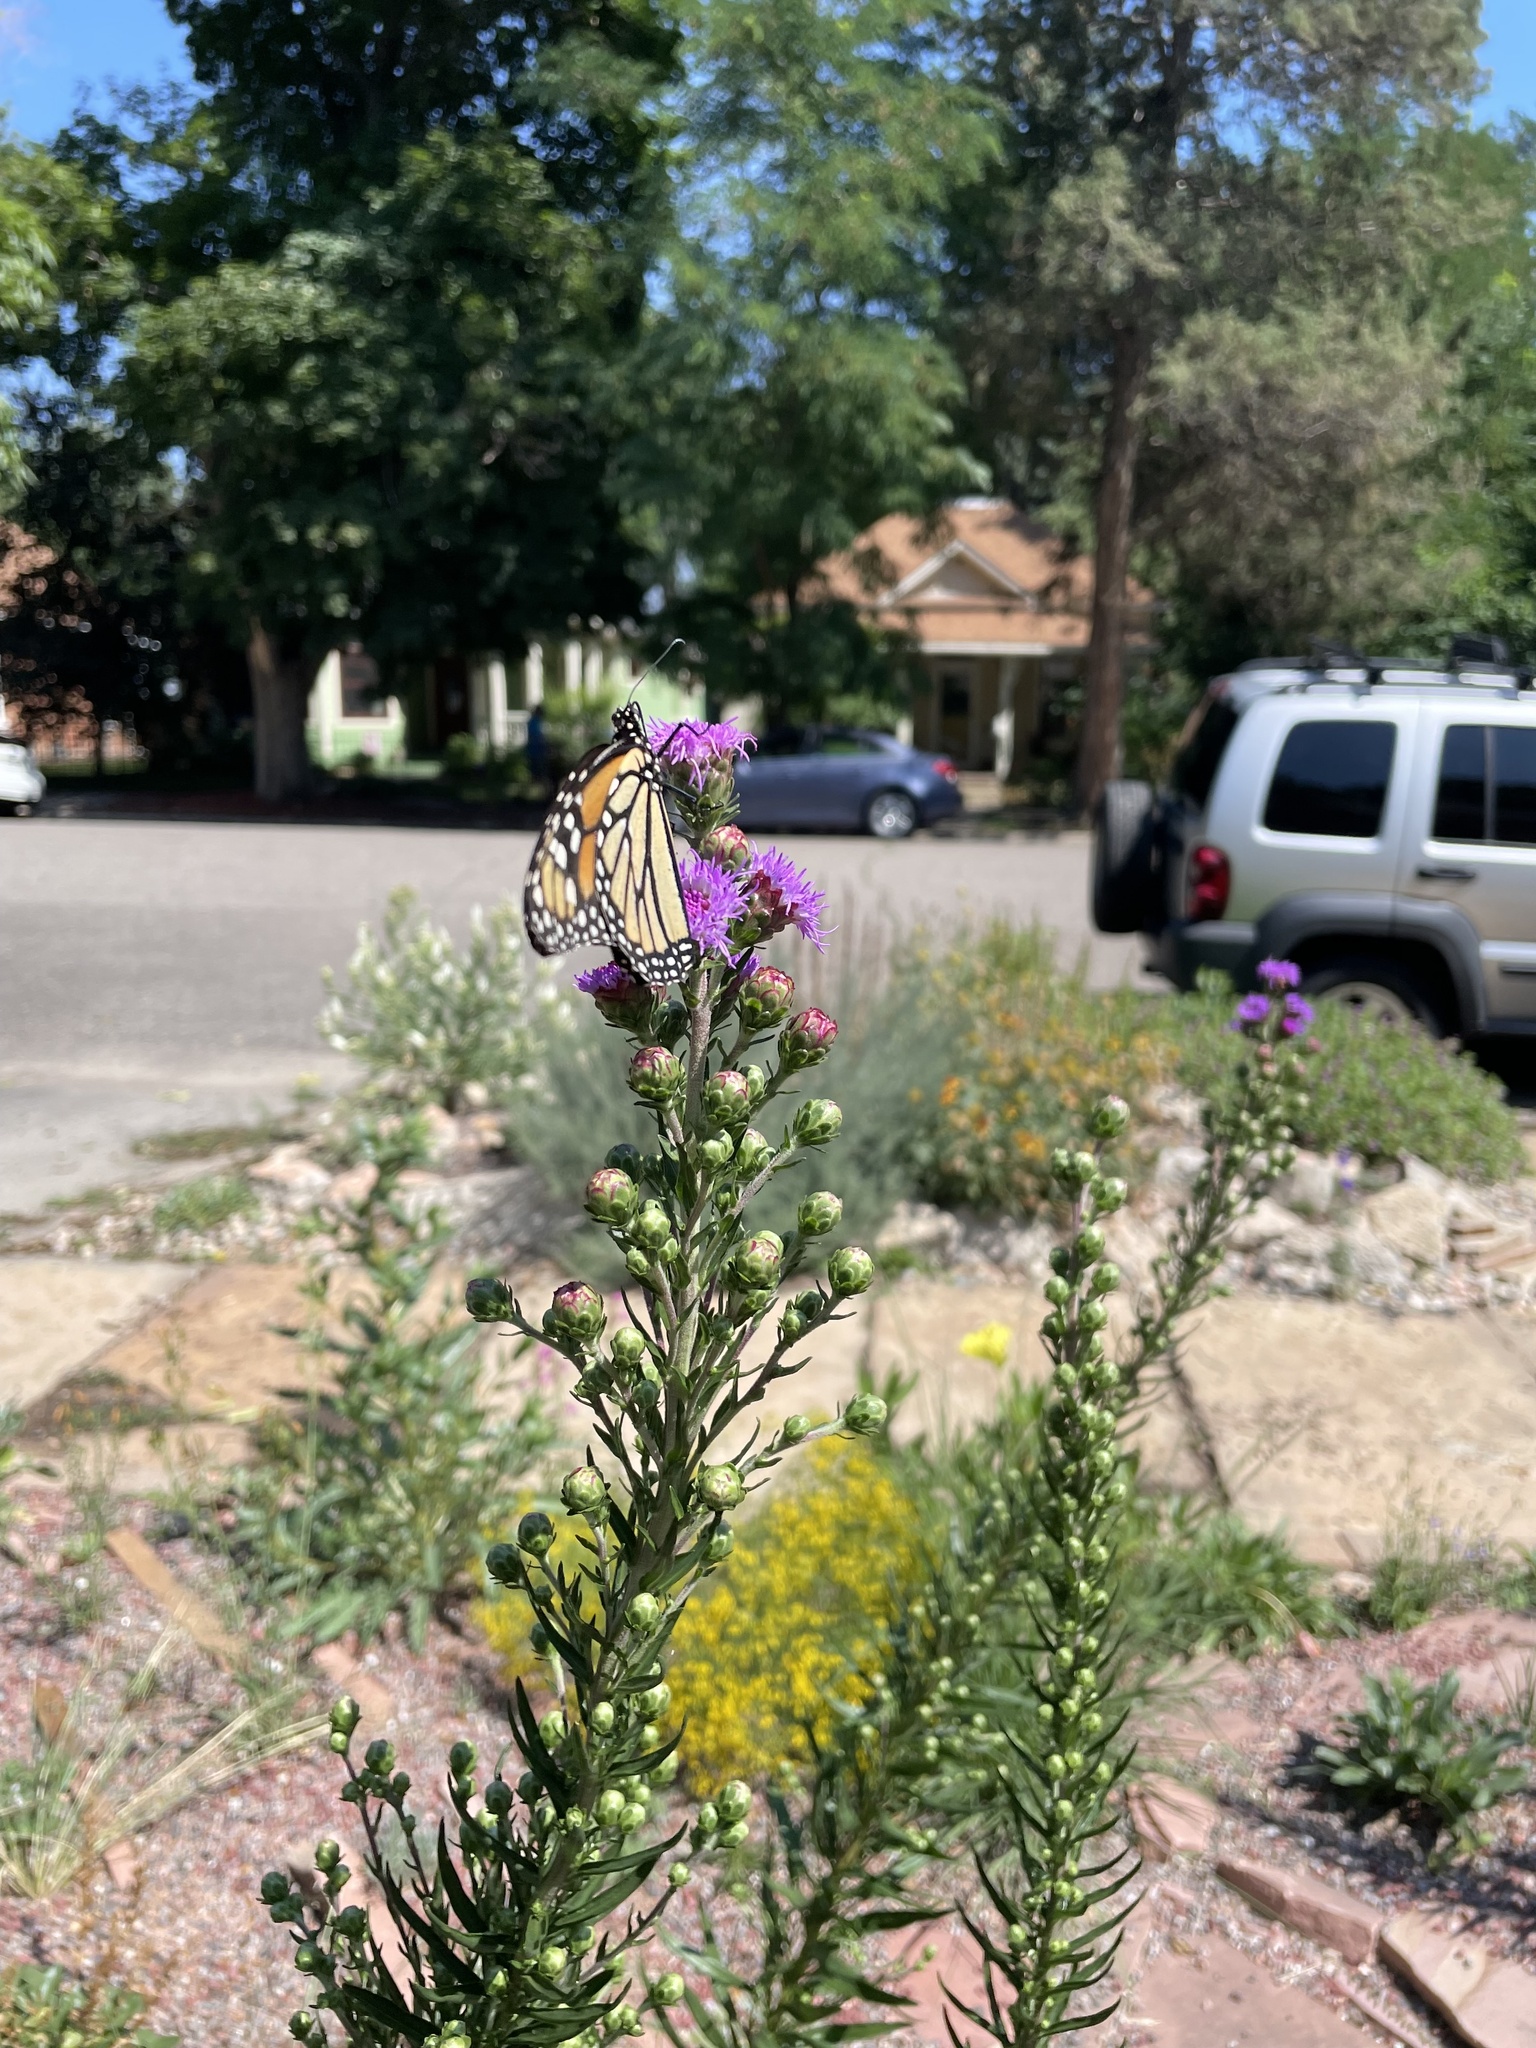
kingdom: Animalia
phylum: Arthropoda
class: Insecta
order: Lepidoptera
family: Nymphalidae
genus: Danaus
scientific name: Danaus plexippus
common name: Monarch
